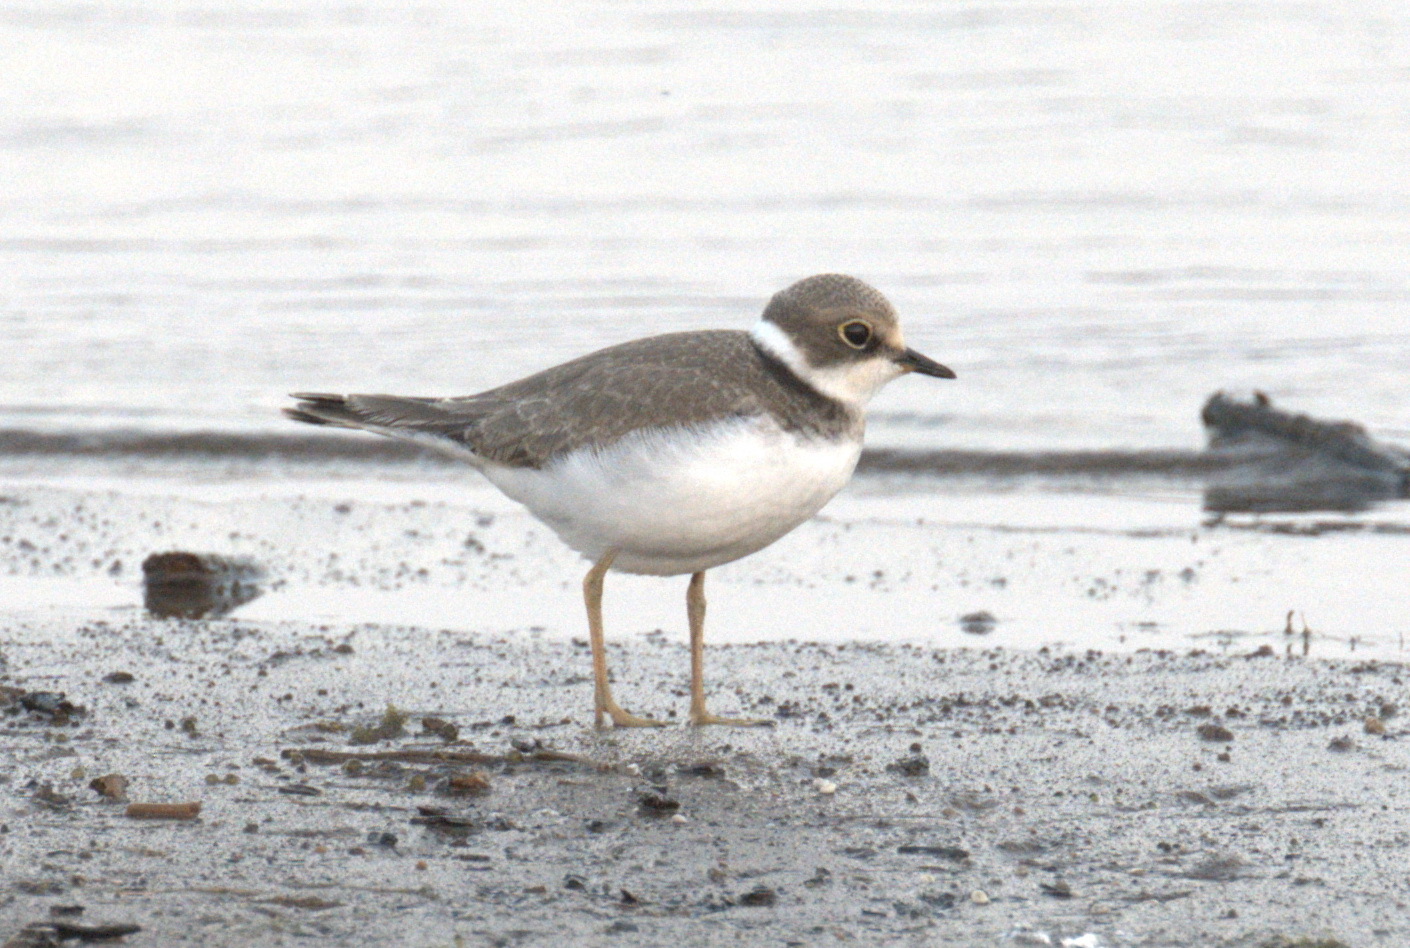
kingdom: Animalia
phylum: Chordata
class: Aves
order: Charadriiformes
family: Charadriidae
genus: Charadrius
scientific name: Charadrius dubius
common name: Little ringed plover
